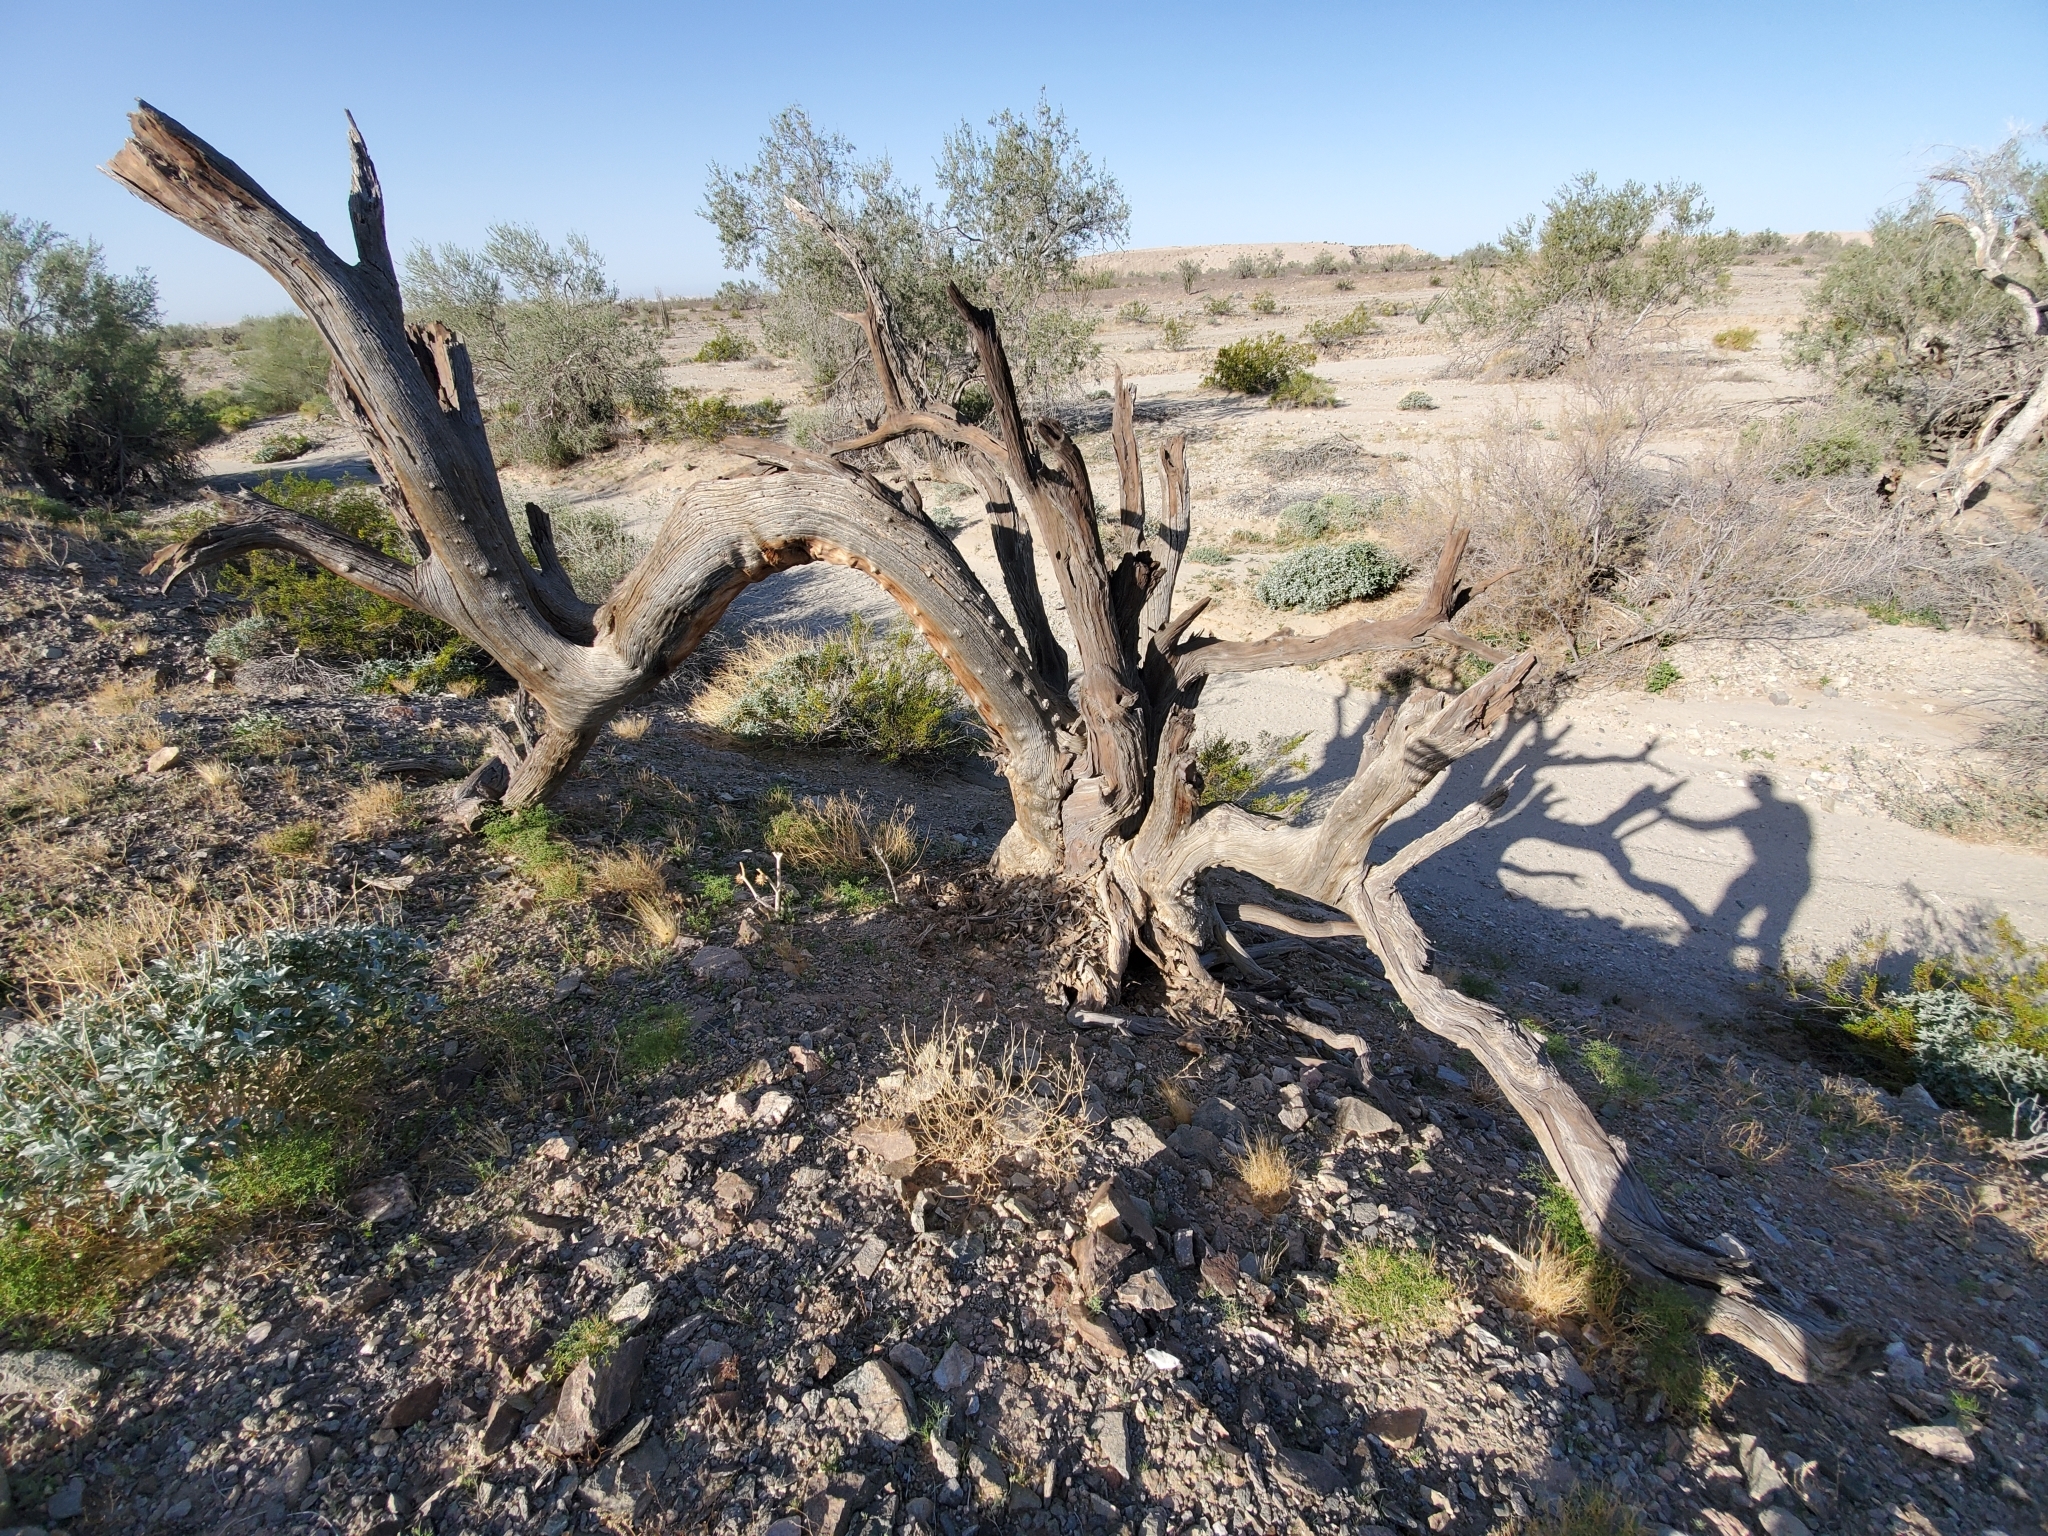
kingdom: Plantae
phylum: Tracheophyta
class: Magnoliopsida
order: Fabales
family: Fabaceae
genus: Olneya
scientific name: Olneya tesota
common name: Desert ironwood
